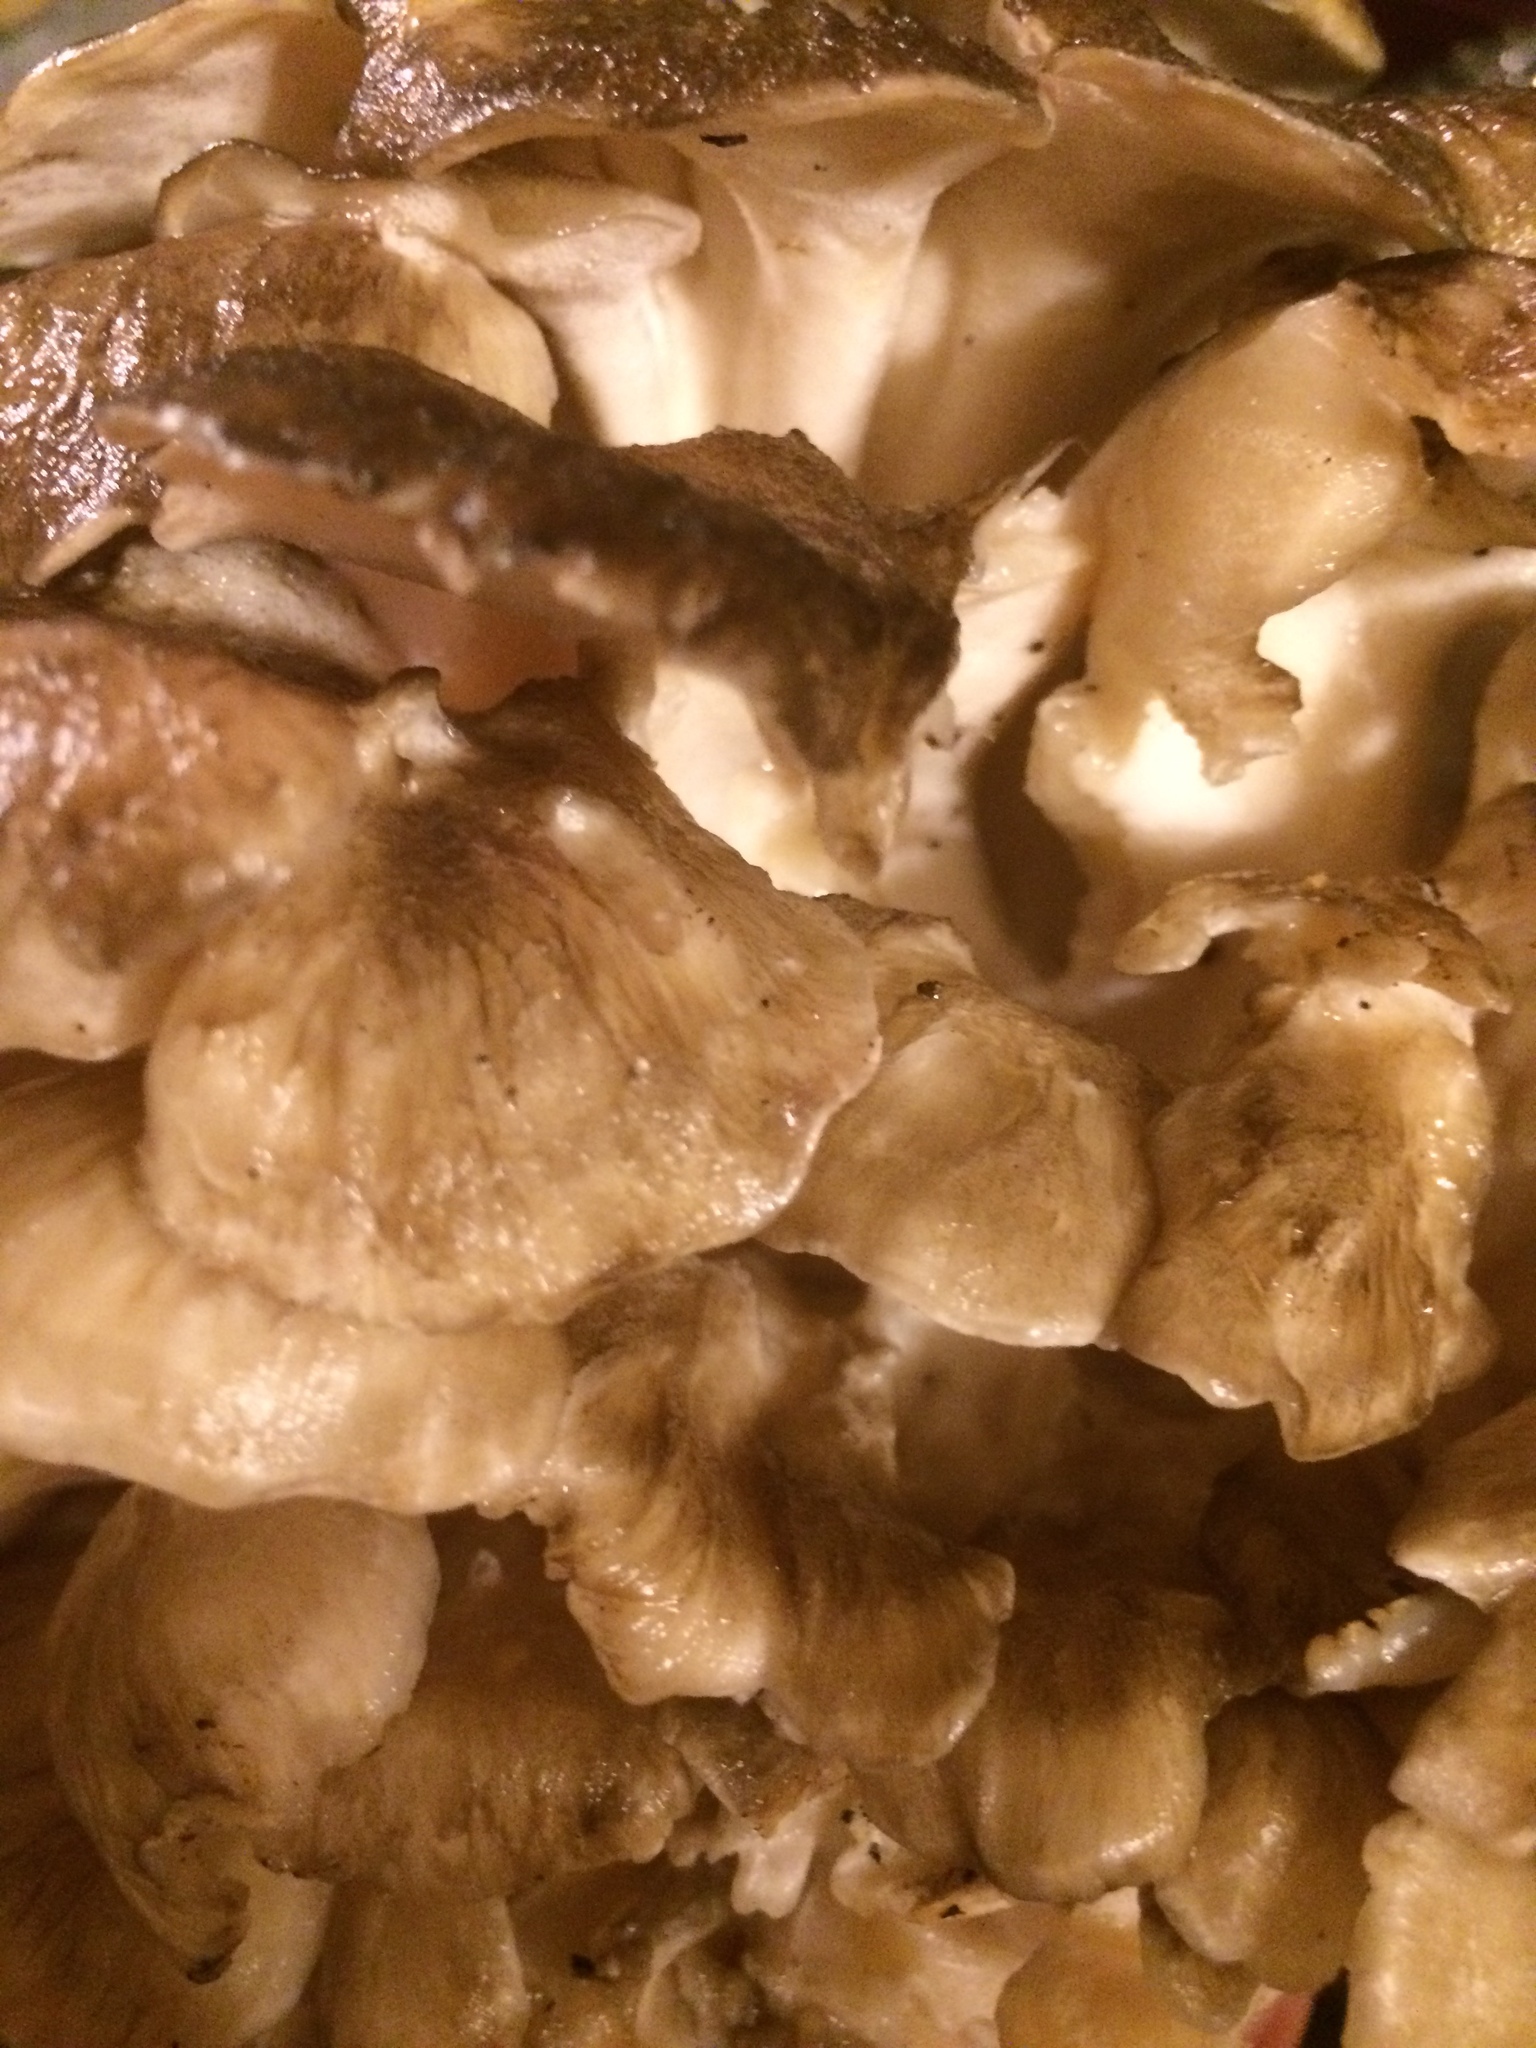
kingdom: Fungi
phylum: Basidiomycota
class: Agaricomycetes
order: Polyporales
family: Grifolaceae
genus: Grifola
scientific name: Grifola frondosa
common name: Hen of the woods
